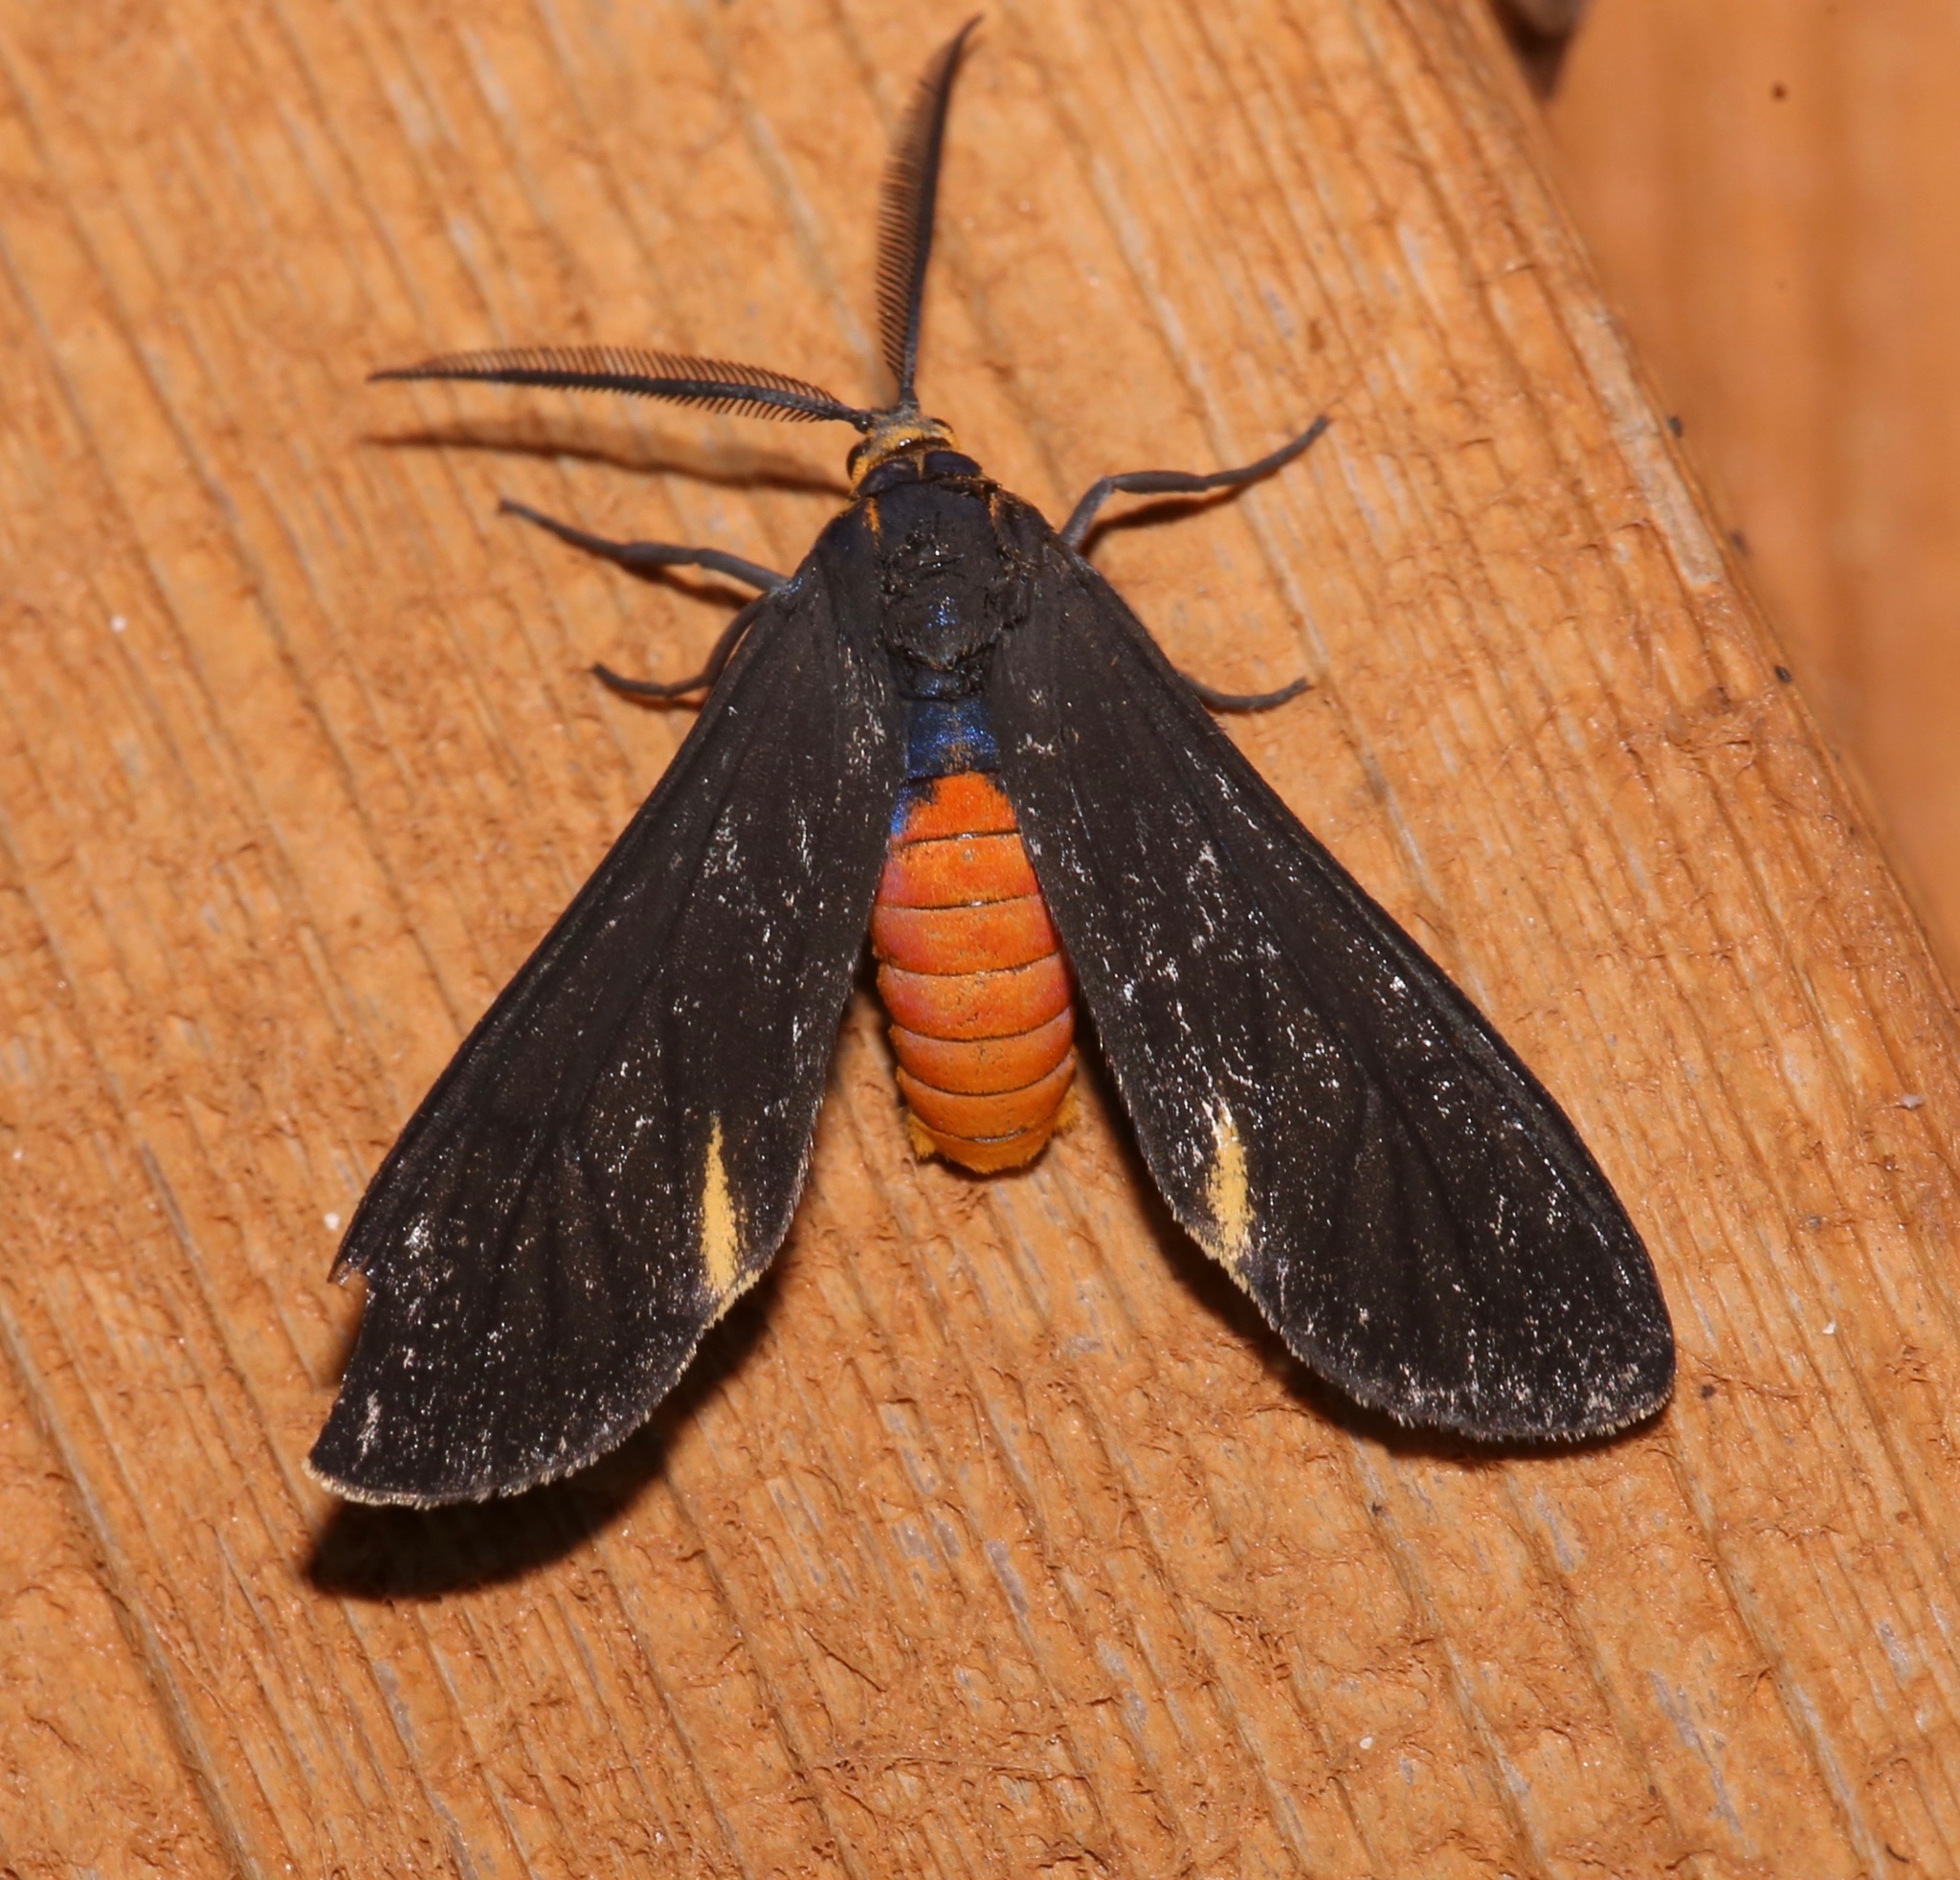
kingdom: Animalia
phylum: Arthropoda
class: Insecta
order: Lepidoptera
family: Erebidae
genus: Dahana
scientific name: Dahana atripennis
